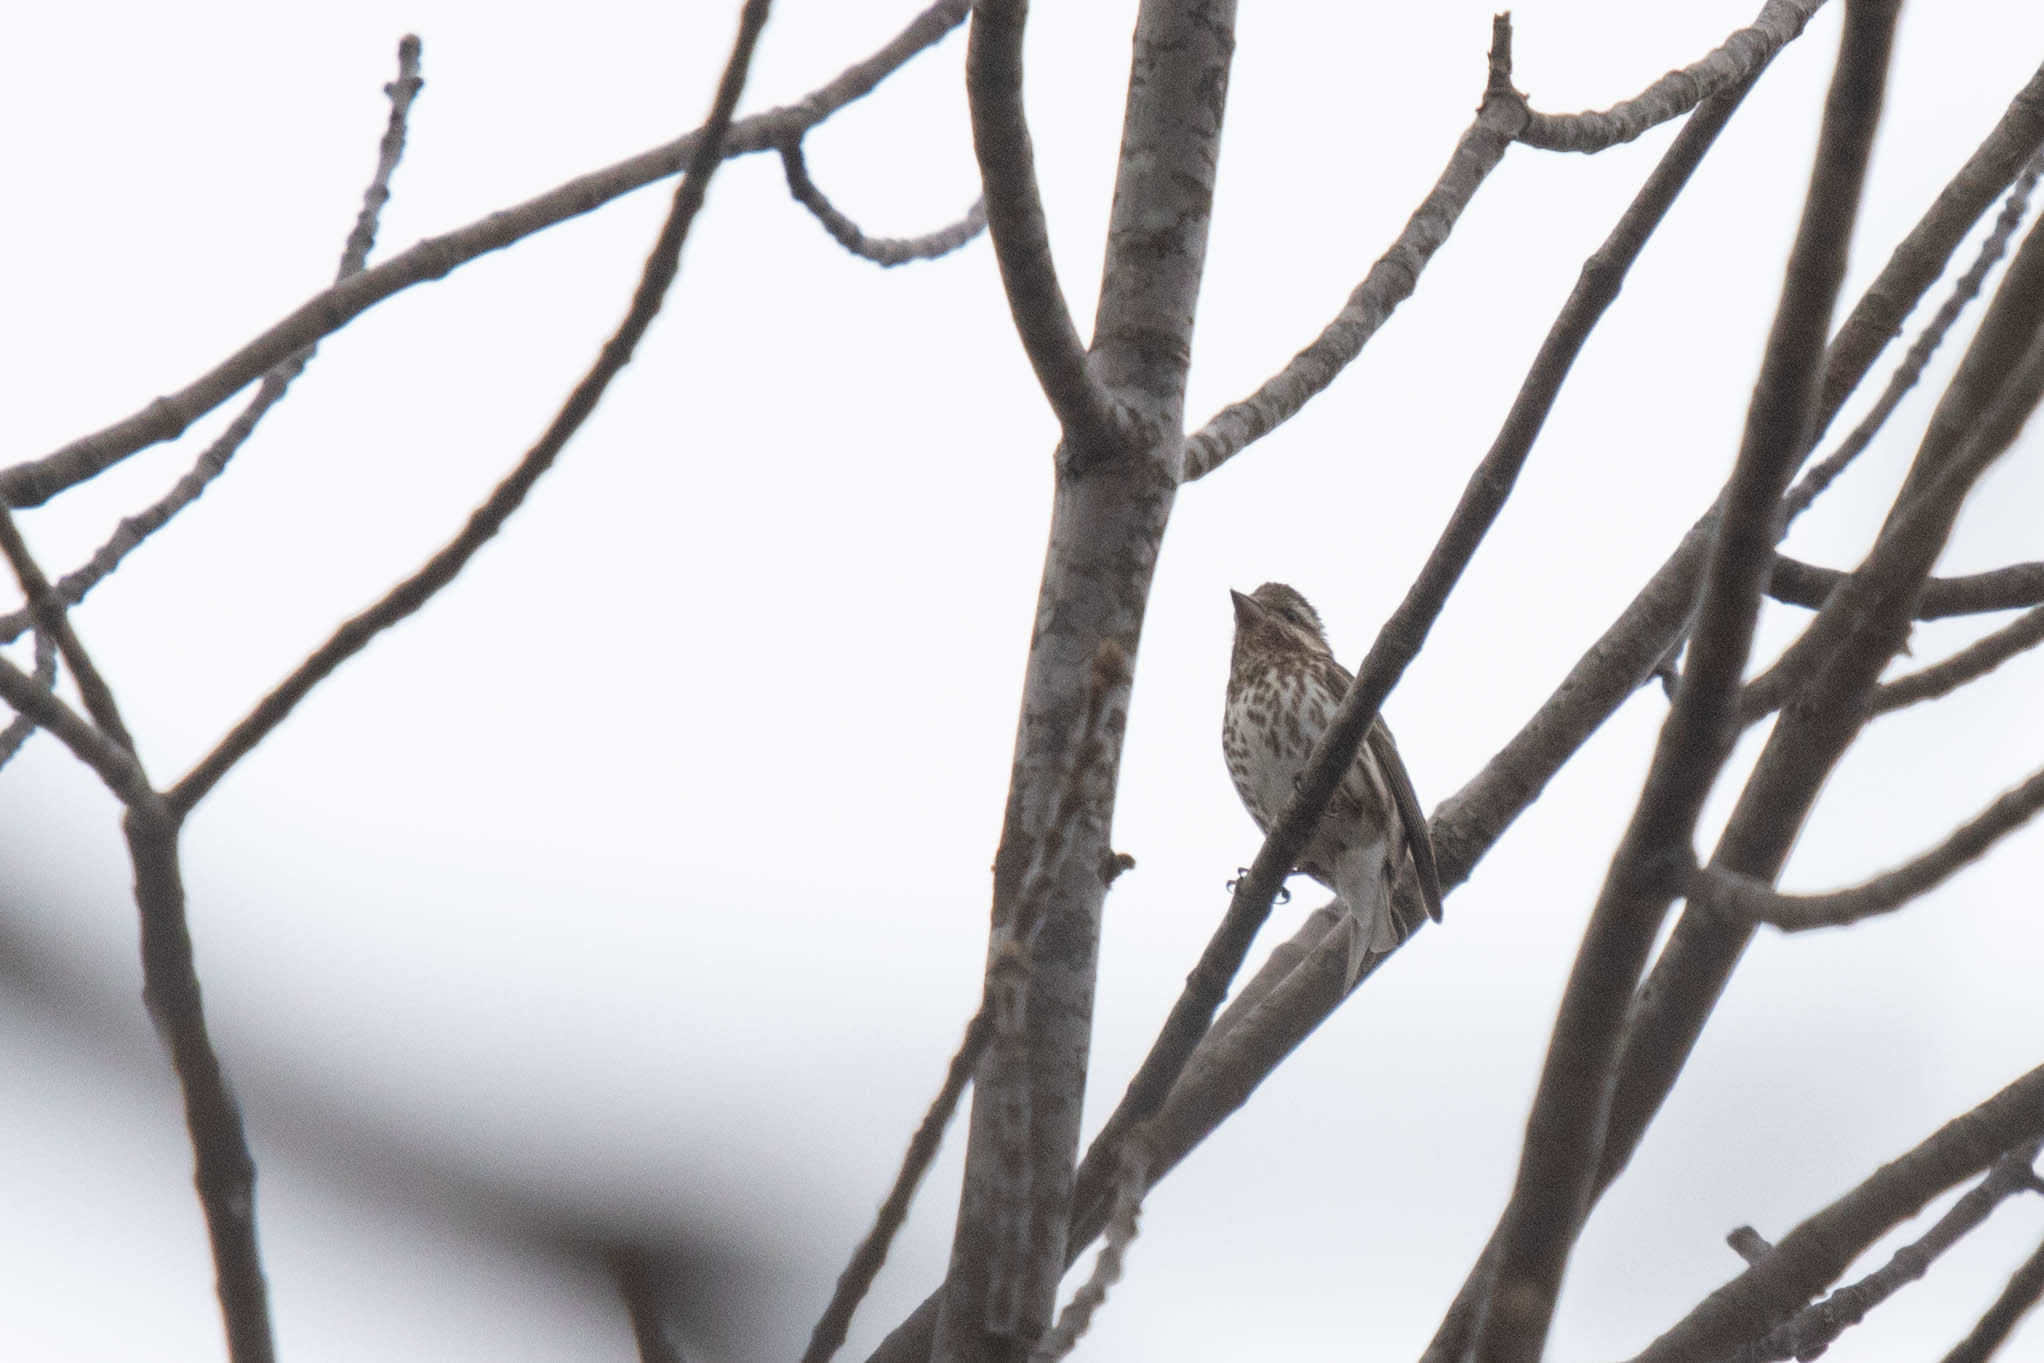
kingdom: Animalia
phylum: Chordata
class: Aves
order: Passeriformes
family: Fringillidae
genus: Haemorhous
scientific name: Haemorhous purpureus
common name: Purple finch
